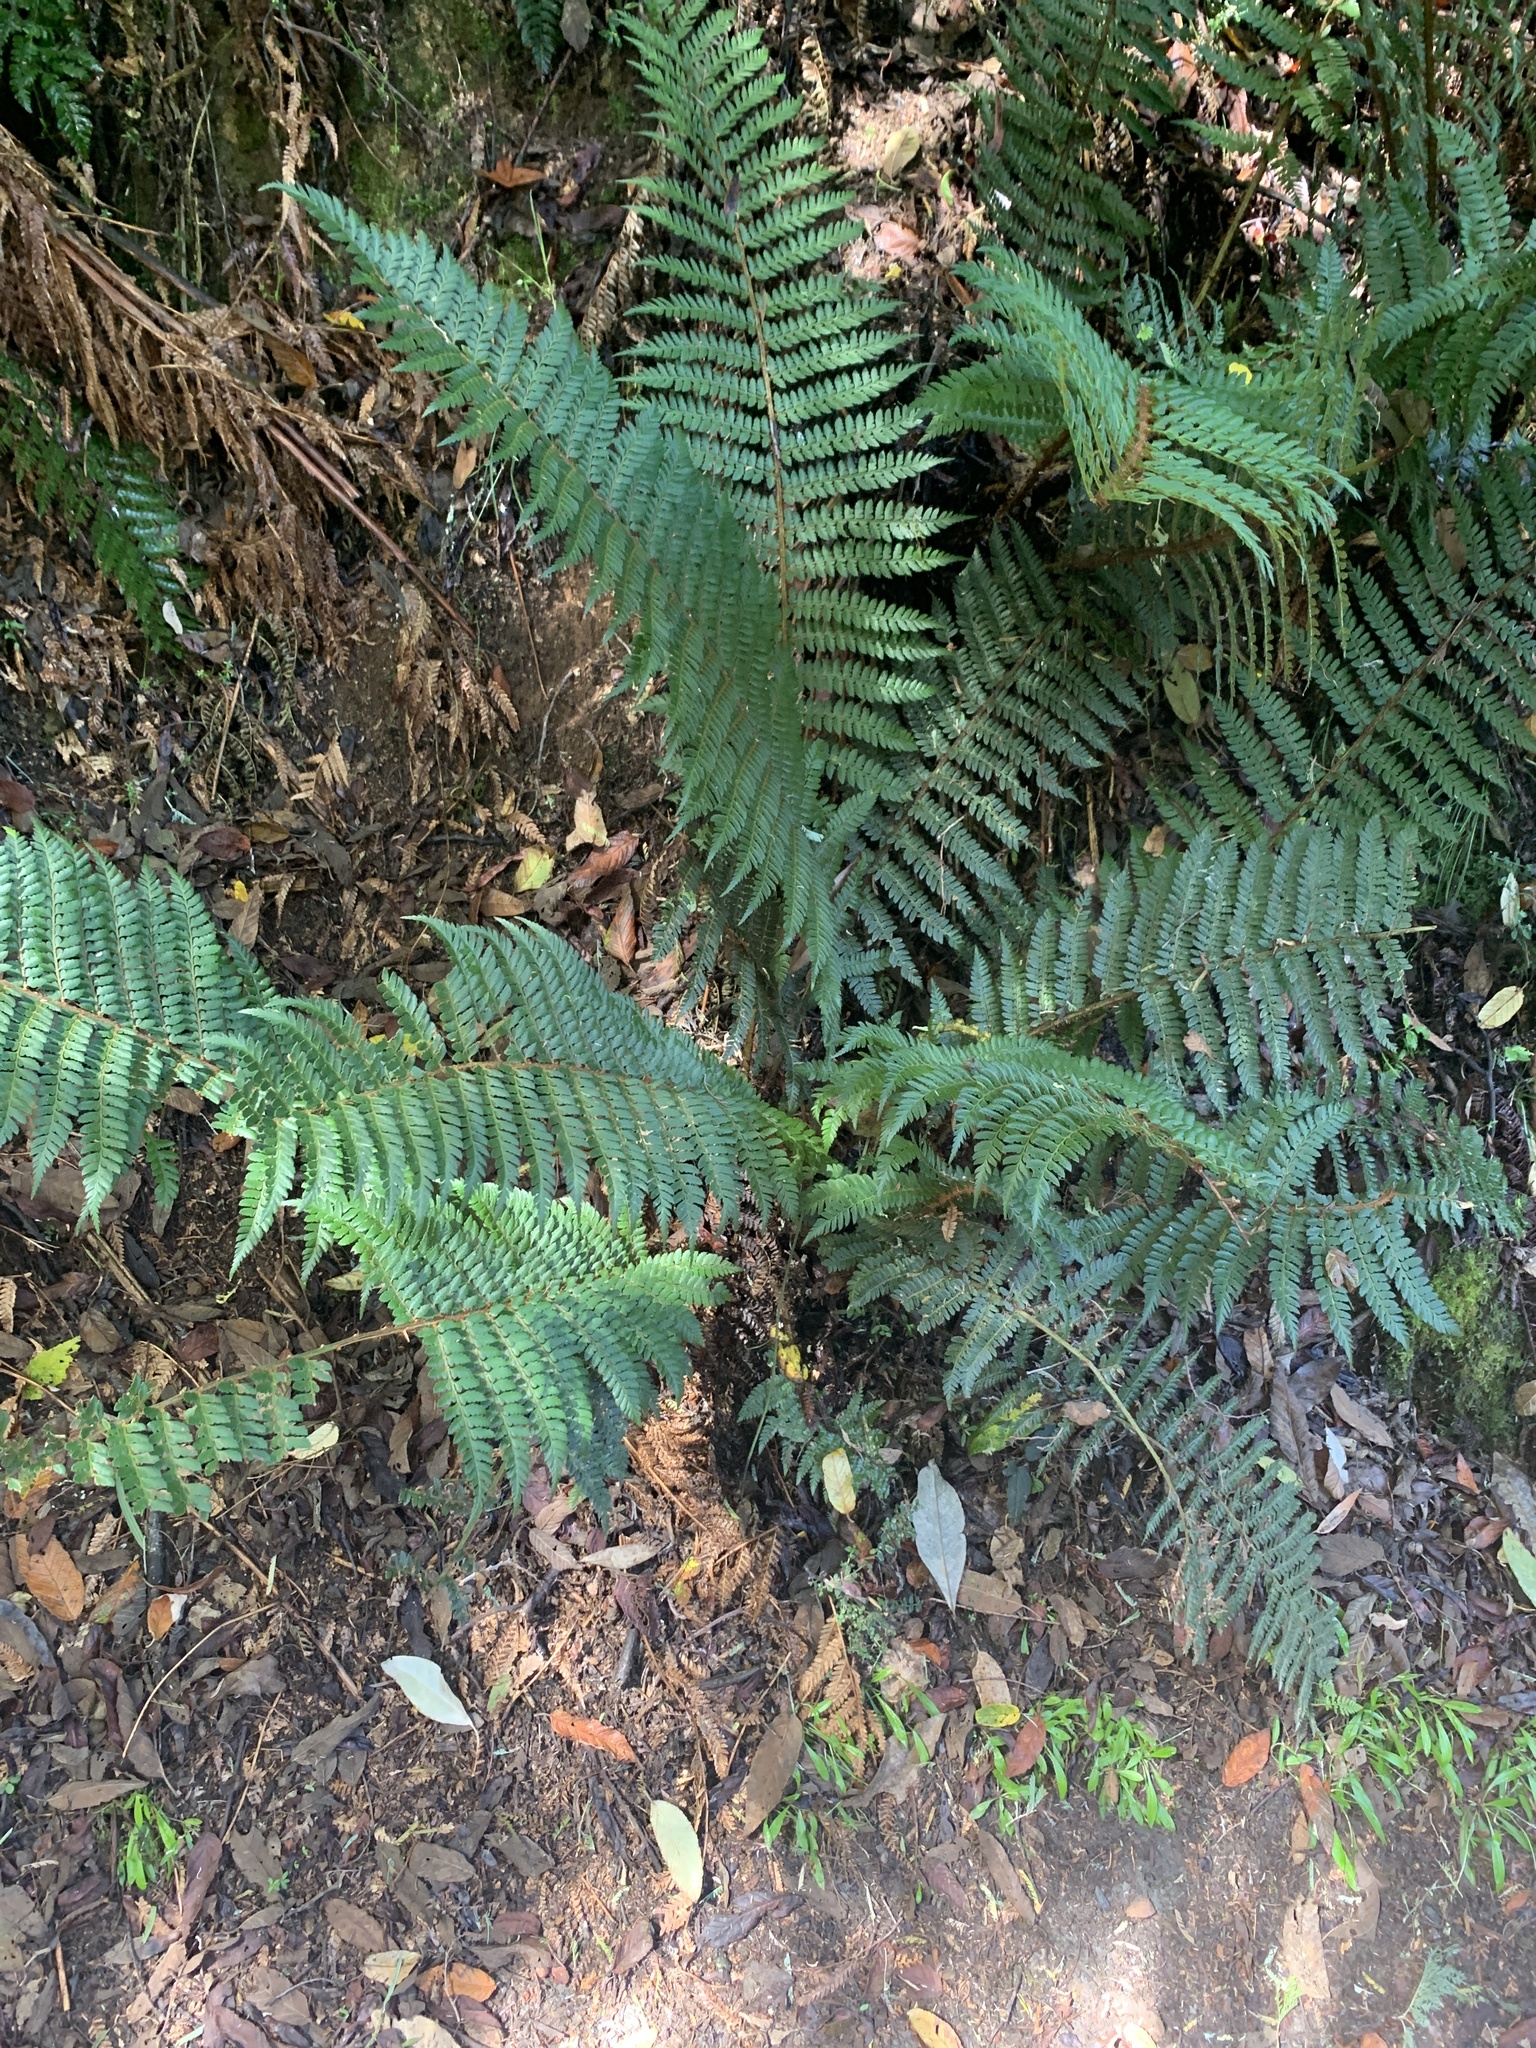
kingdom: Plantae
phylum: Tracheophyta
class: Polypodiopsida
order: Polypodiales
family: Dryopteridaceae
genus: Polystichum
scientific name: Polystichum proliferum
